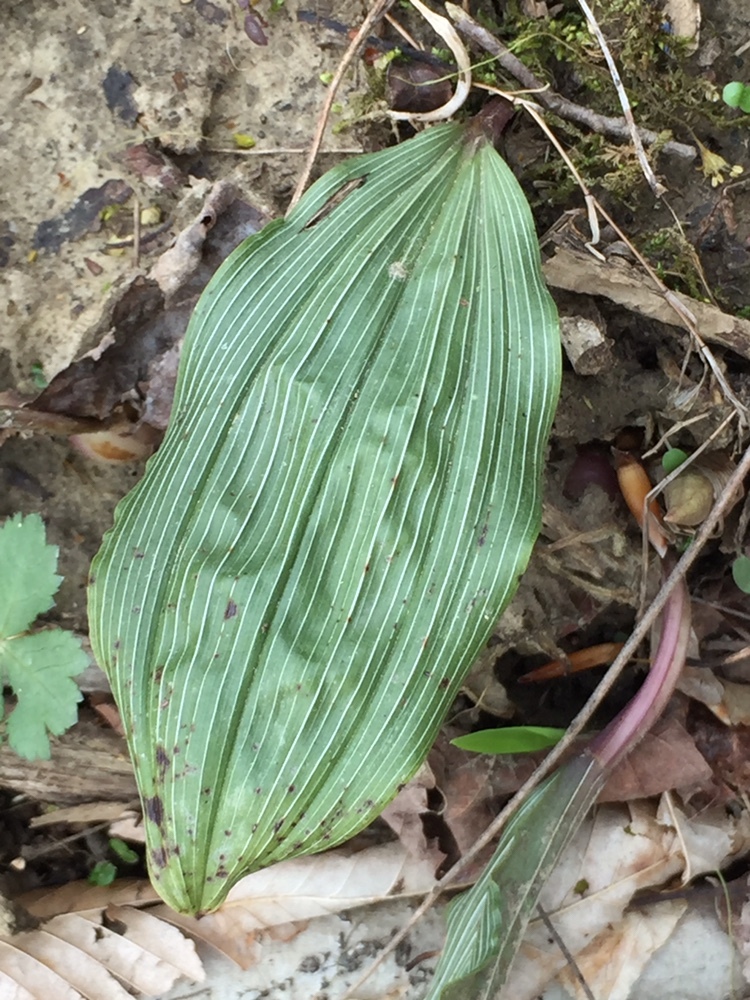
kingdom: Plantae
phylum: Tracheophyta
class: Liliopsida
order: Asparagales
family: Orchidaceae
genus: Aplectrum
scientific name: Aplectrum hyemale
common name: Adam-and-eve
